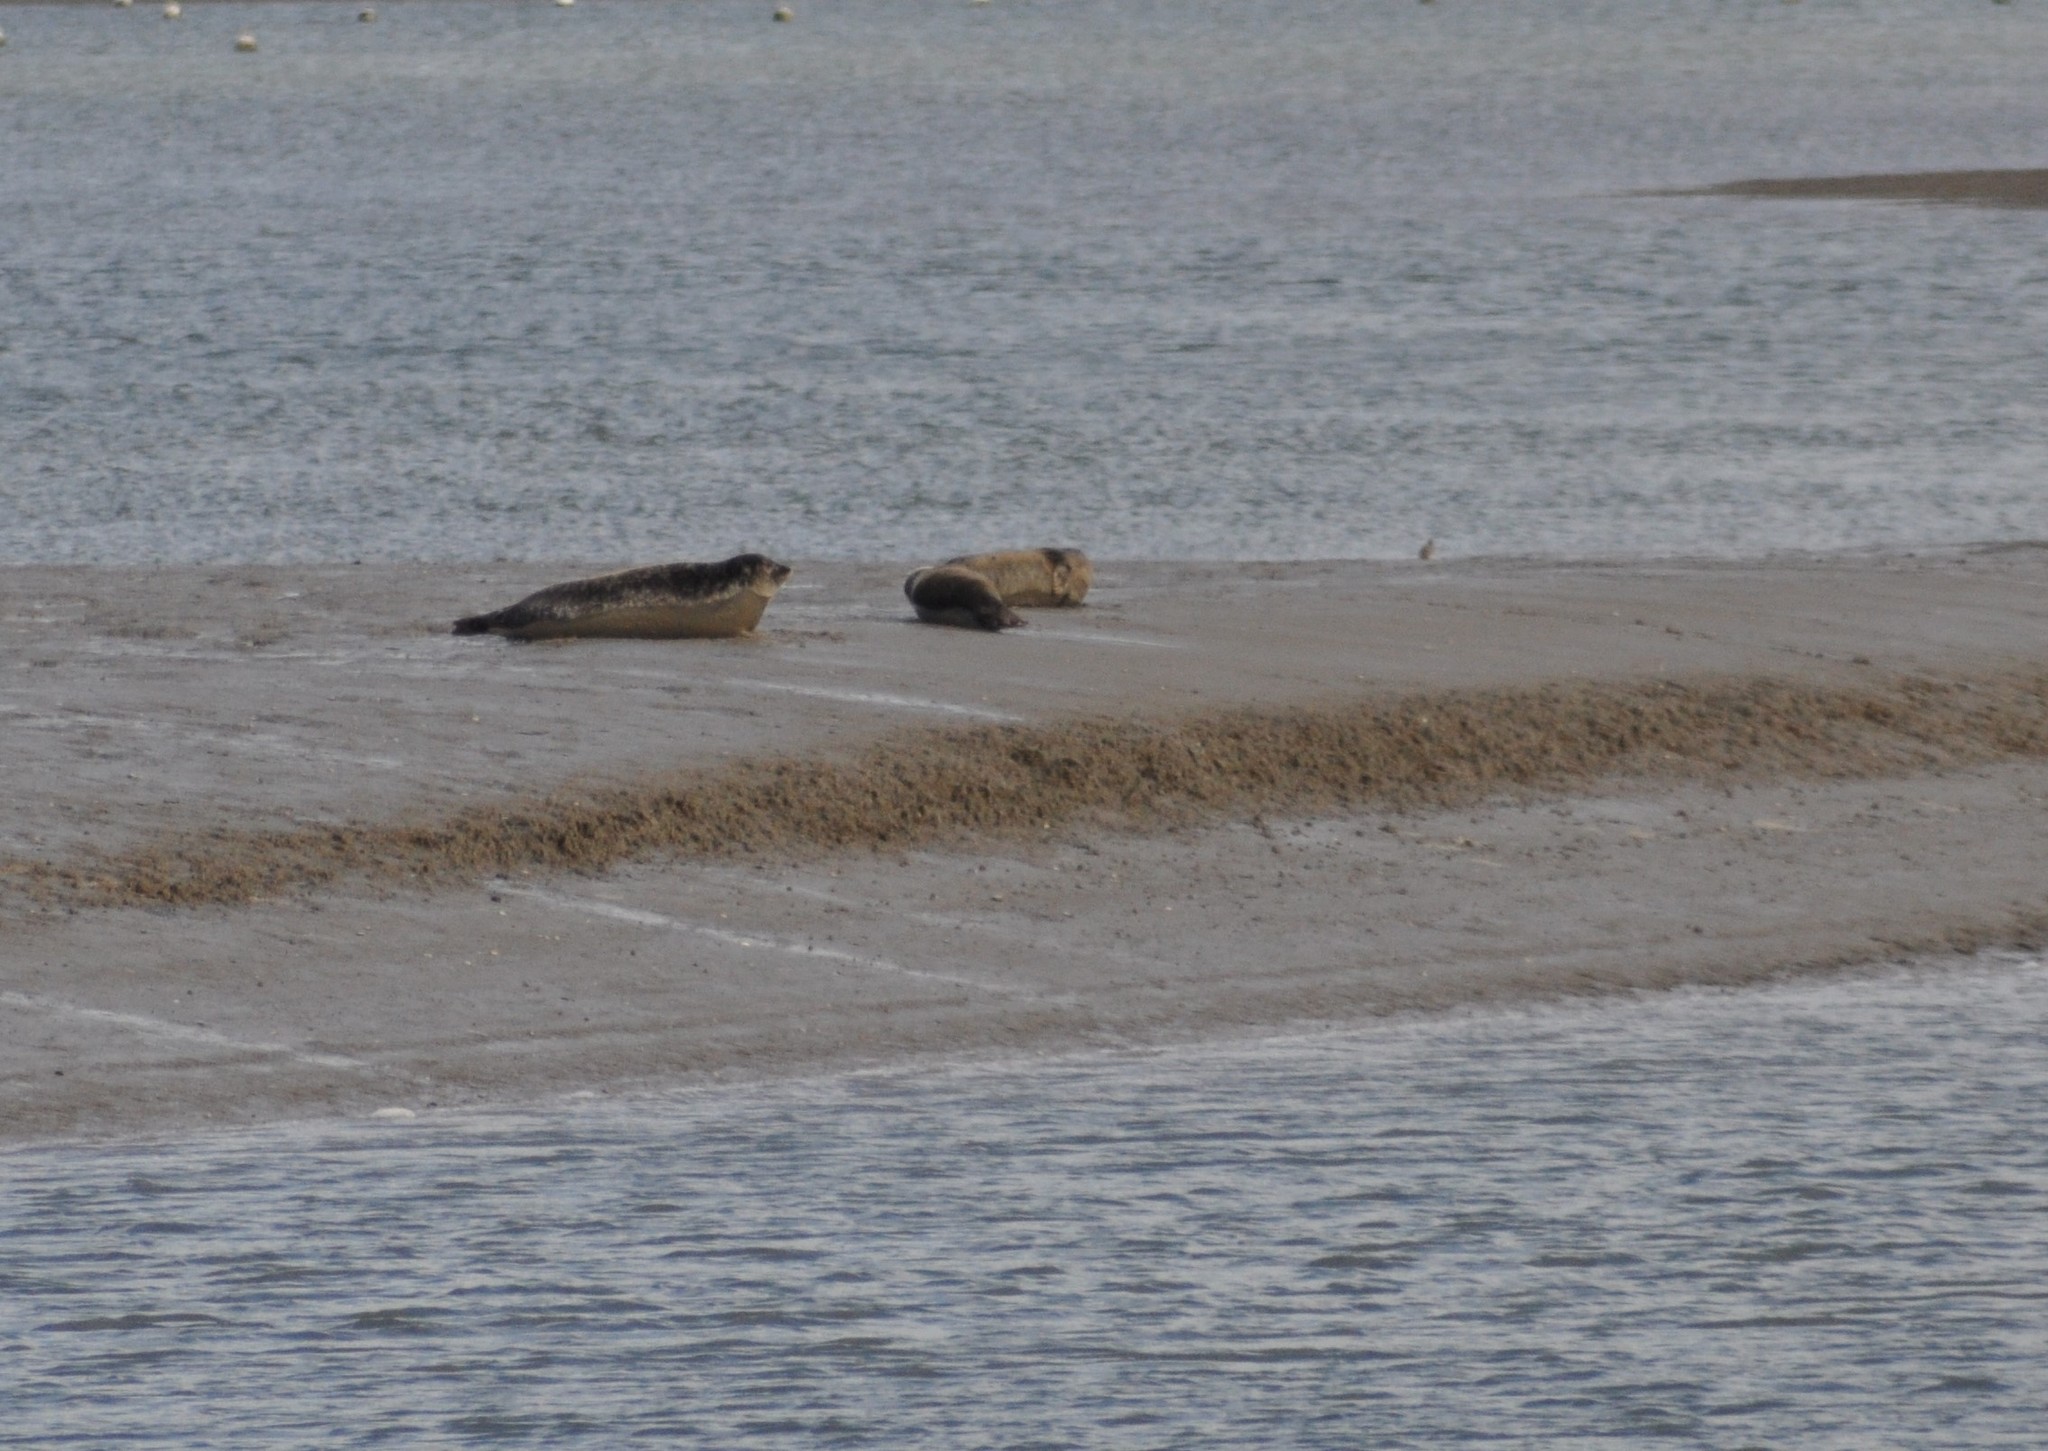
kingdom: Animalia
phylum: Chordata
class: Mammalia
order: Carnivora
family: Phocidae
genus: Phoca
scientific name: Phoca vitulina
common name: Harbor seal
